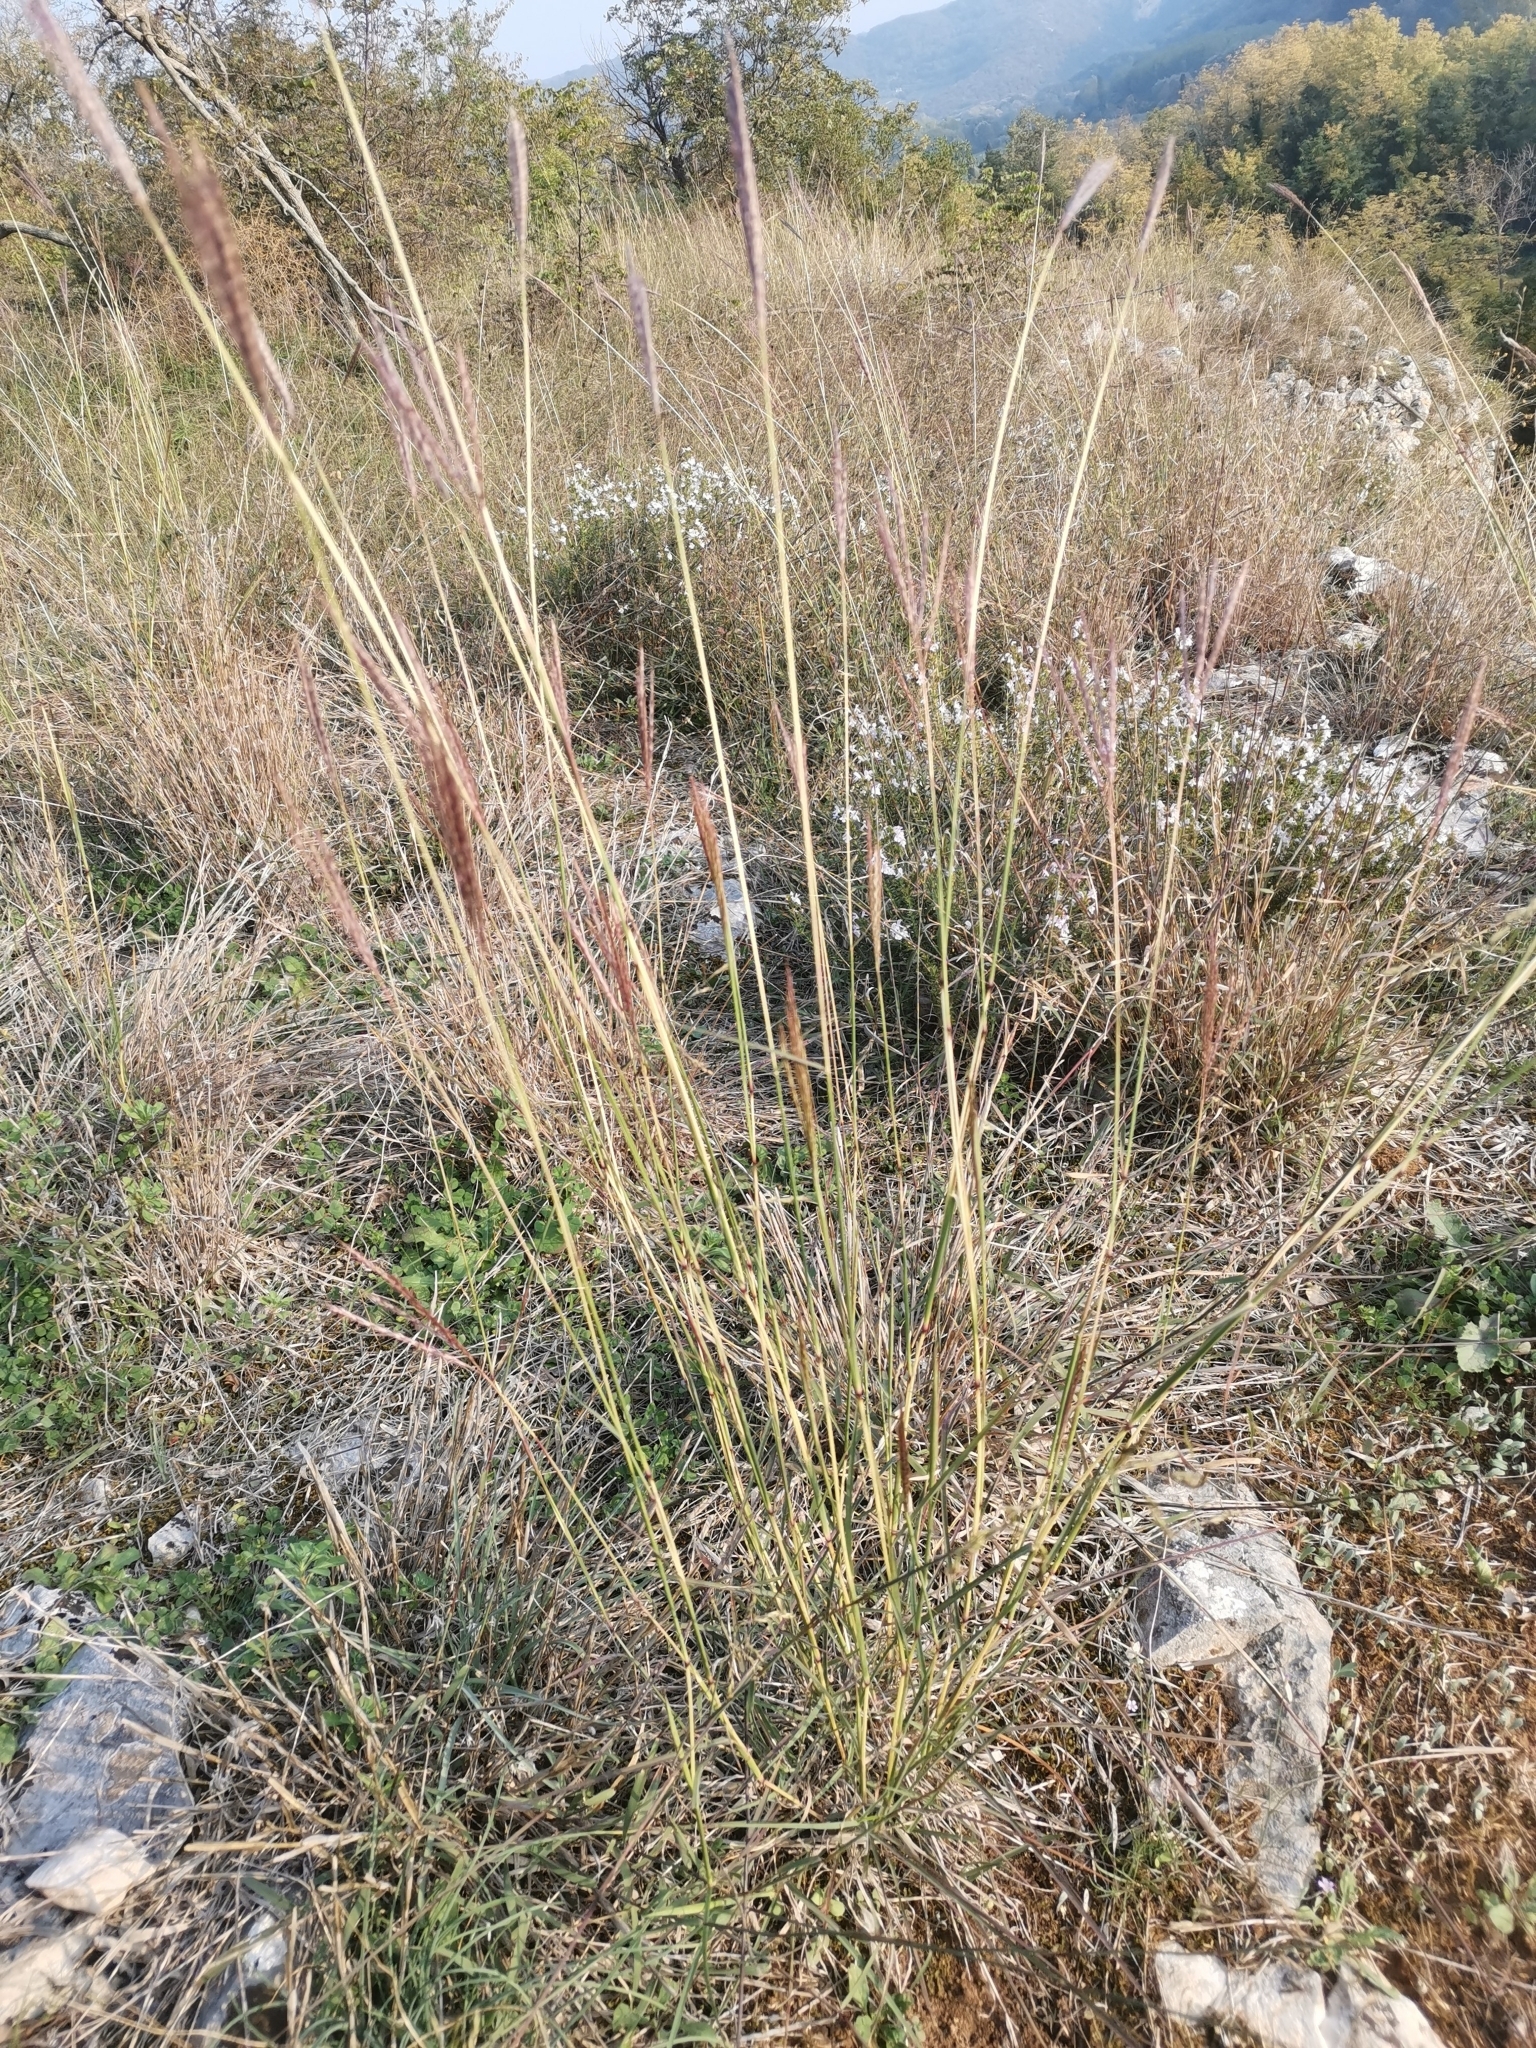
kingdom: Plantae
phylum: Tracheophyta
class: Liliopsida
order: Poales
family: Poaceae
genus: Bothriochloa
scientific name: Bothriochloa ischaemum
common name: Yellow bluestem
